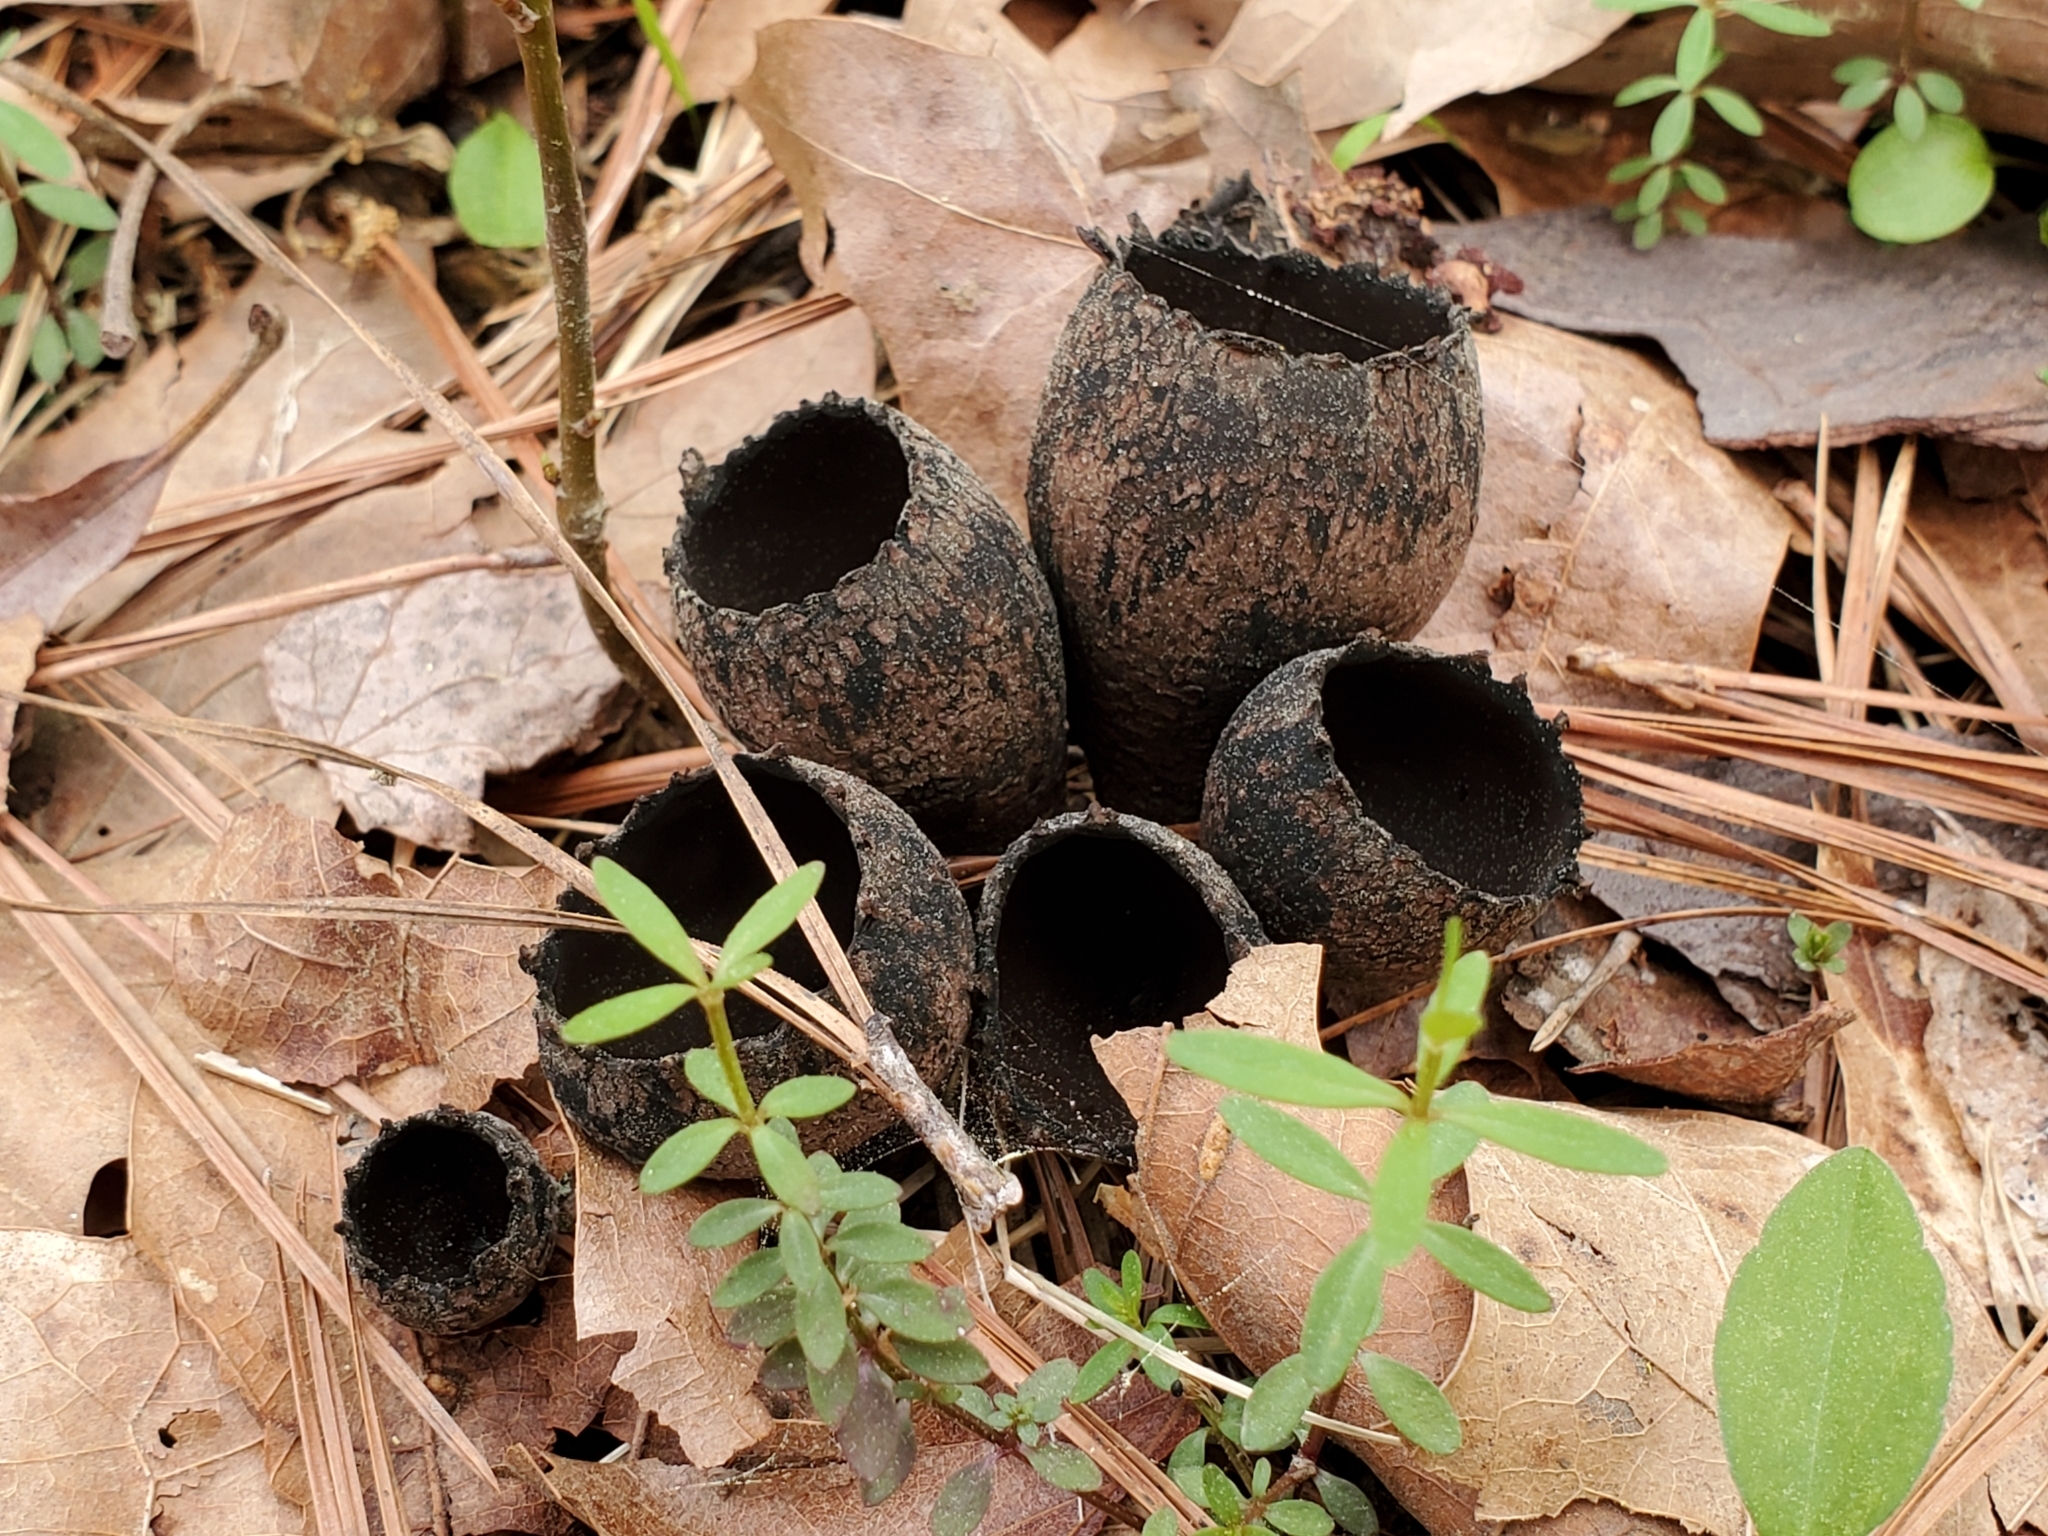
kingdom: Fungi
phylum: Ascomycota
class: Pezizomycetes
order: Pezizales
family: Sarcosomataceae
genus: Urnula
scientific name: Urnula craterium
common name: Devil's urn
